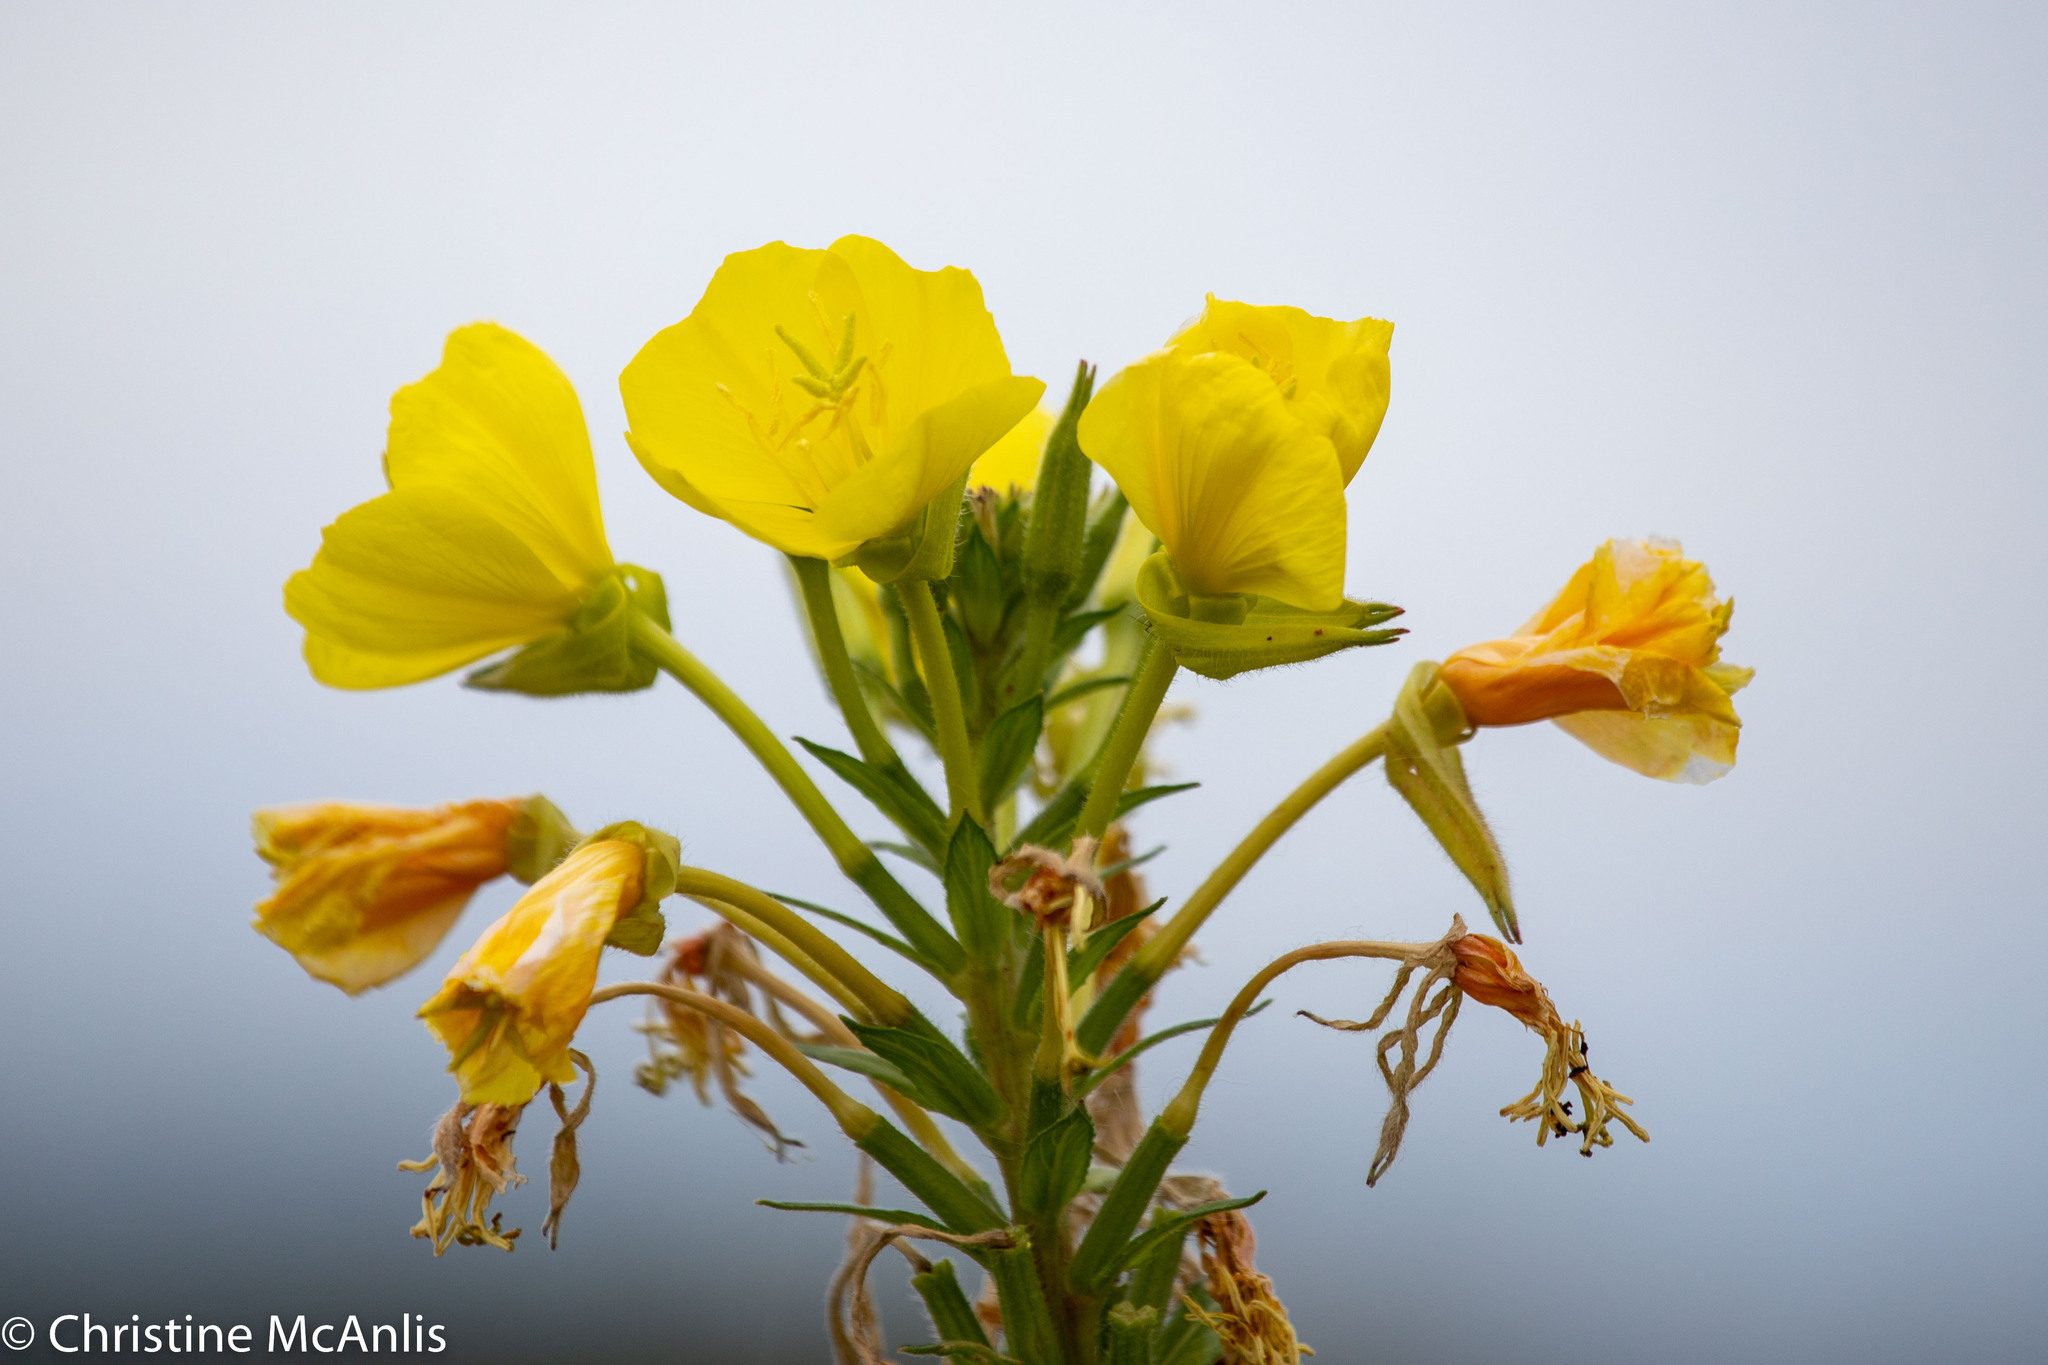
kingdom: Plantae
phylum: Tracheophyta
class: Magnoliopsida
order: Myrtales
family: Onagraceae
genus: Oenothera
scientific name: Oenothera biennis
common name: Common evening-primrose
